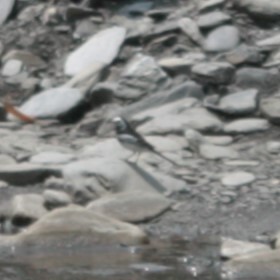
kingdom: Animalia
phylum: Chordata
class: Aves
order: Passeriformes
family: Motacillidae
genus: Motacilla
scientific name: Motacilla alba
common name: White wagtail
